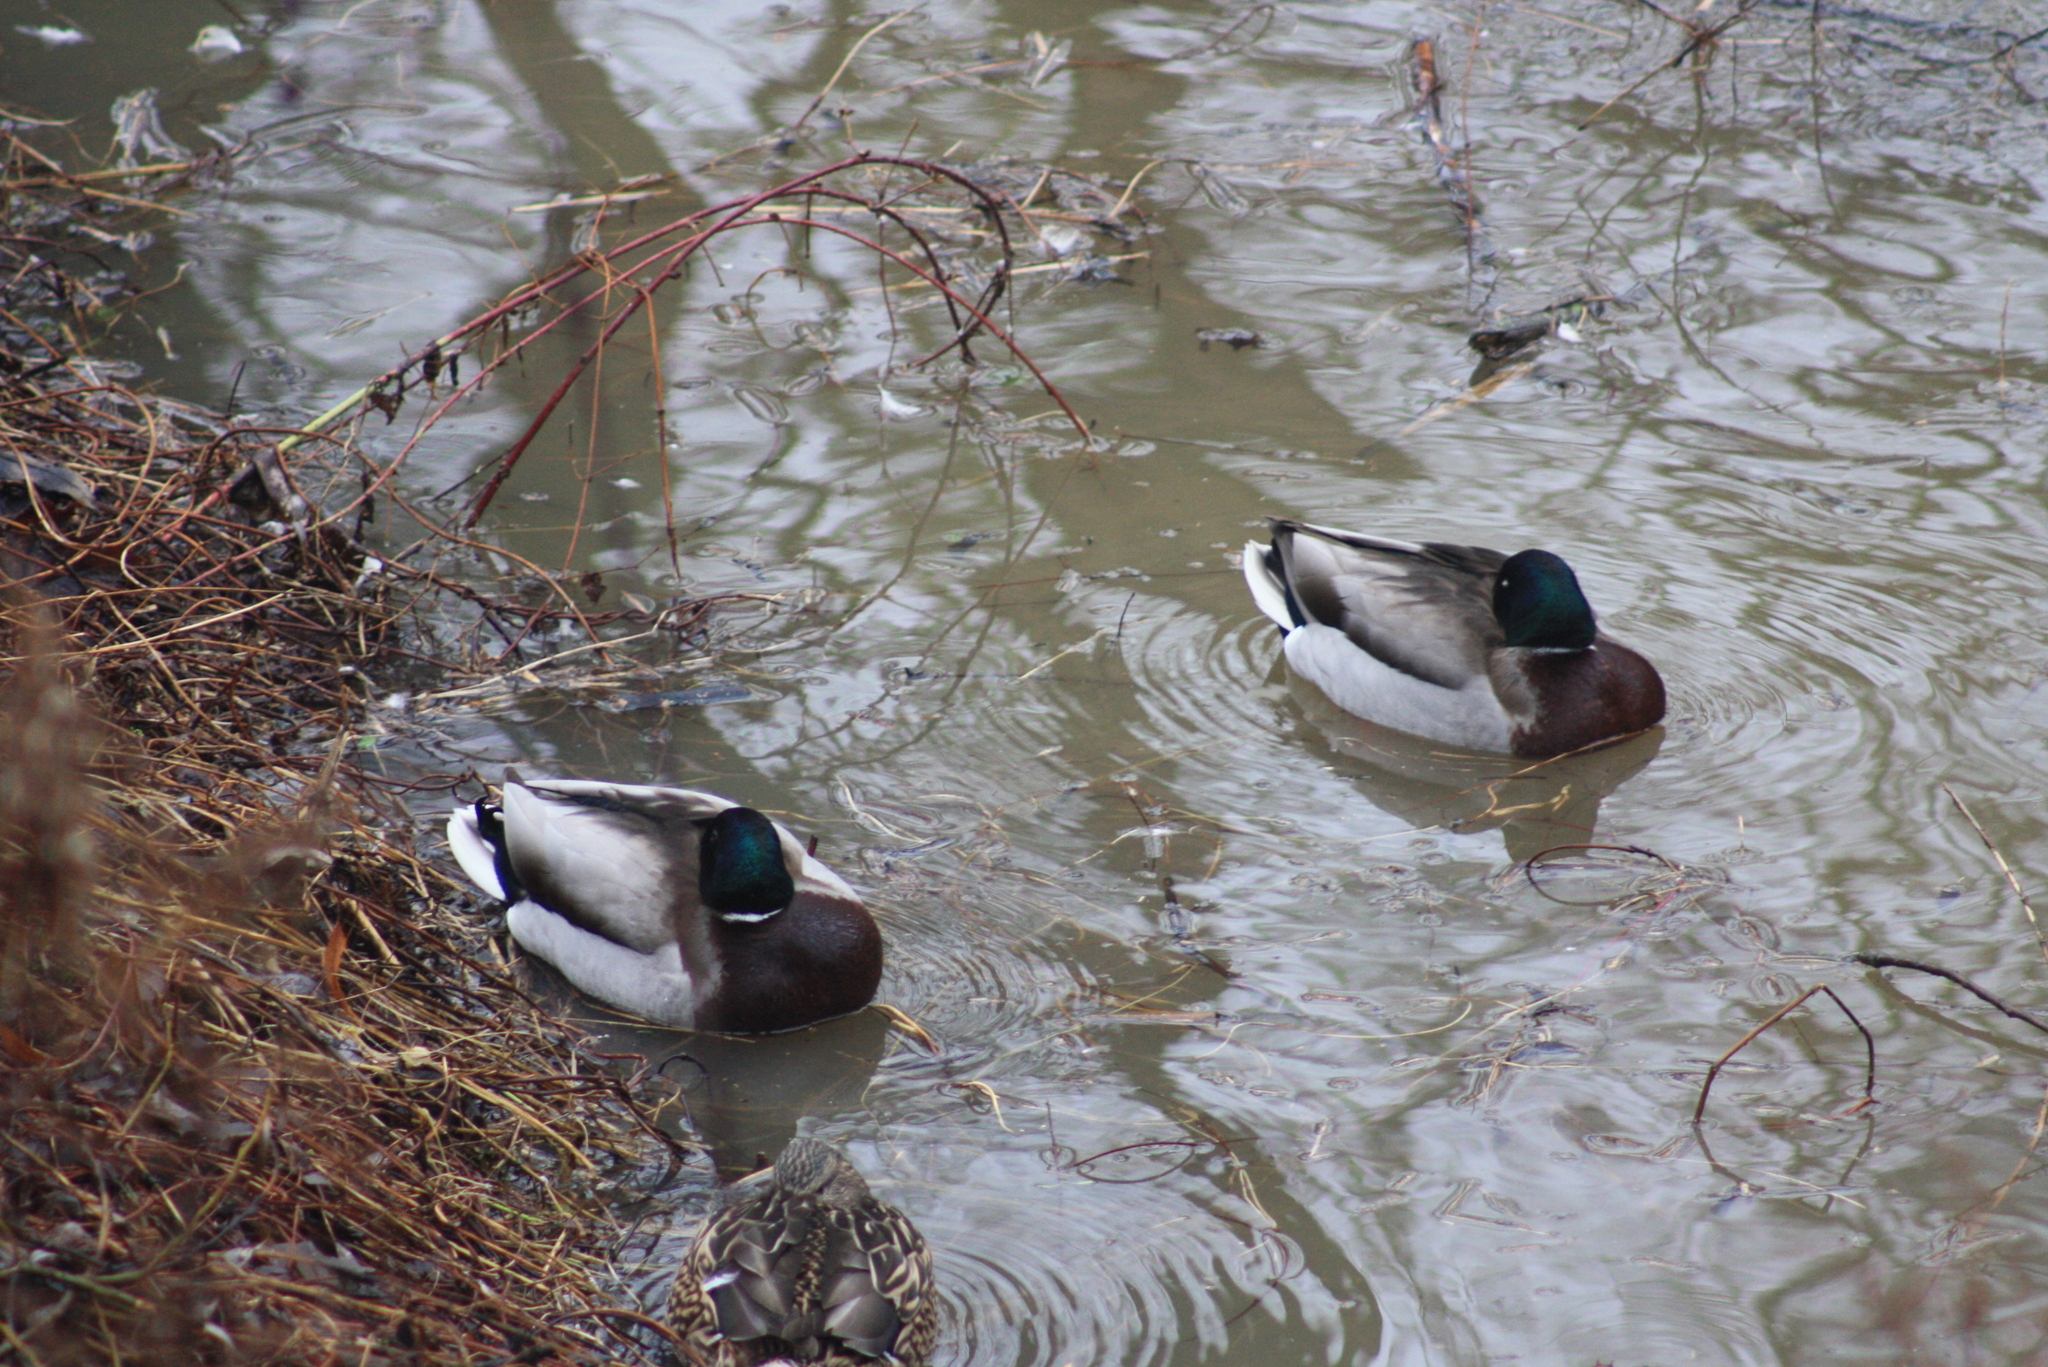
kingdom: Animalia
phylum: Chordata
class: Aves
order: Anseriformes
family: Anatidae
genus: Anas
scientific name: Anas platyrhynchos
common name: Mallard
